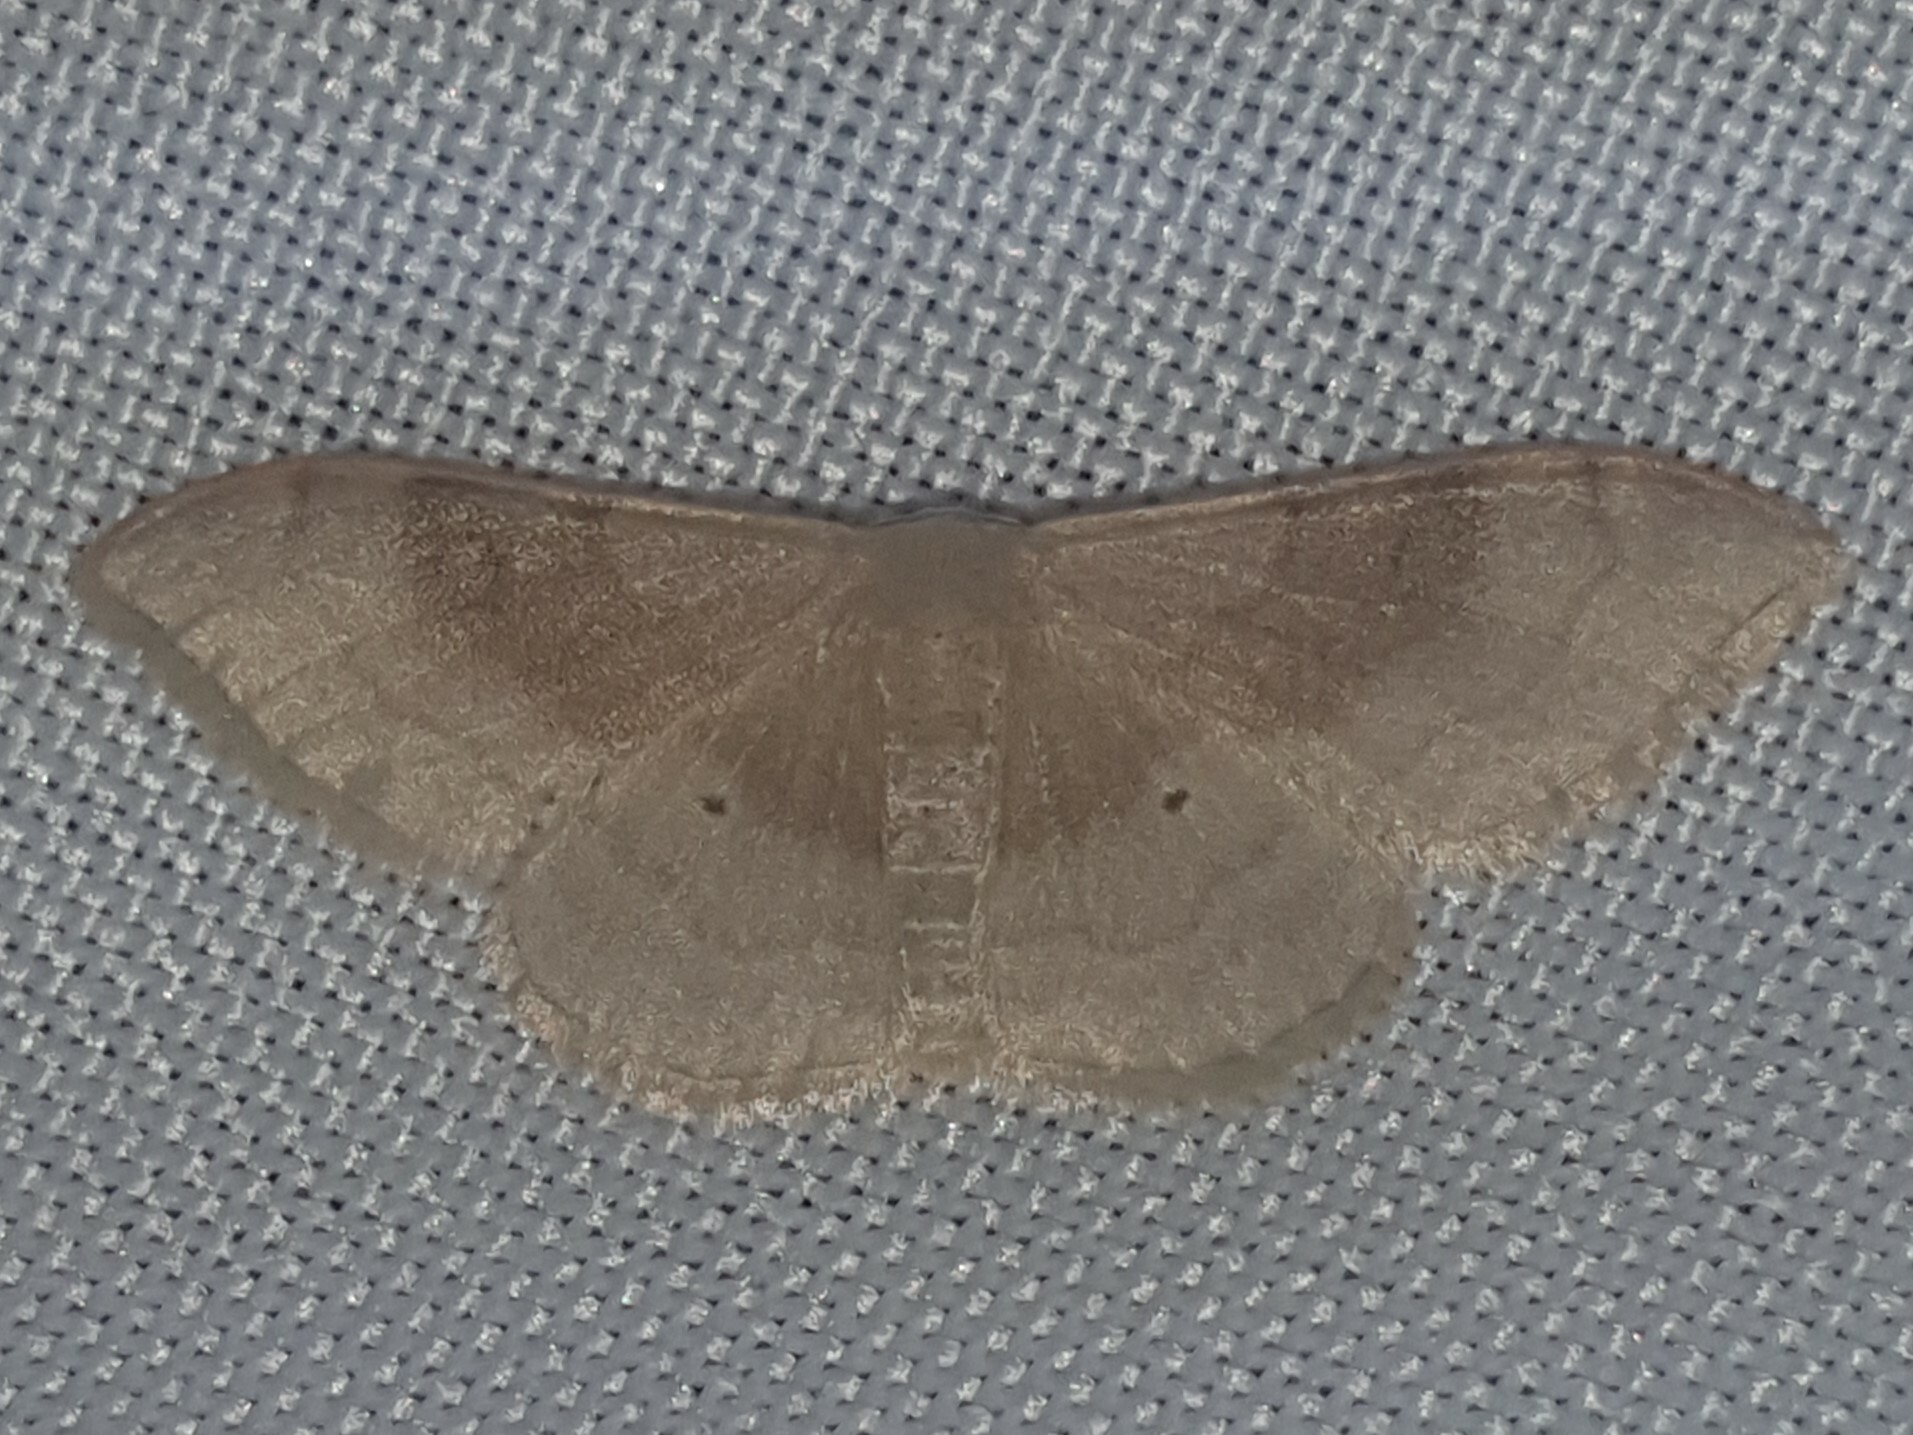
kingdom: Animalia
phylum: Arthropoda
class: Insecta
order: Lepidoptera
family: Geometridae
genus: Idaea
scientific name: Idaea degeneraria
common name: Portland ribbon wave
